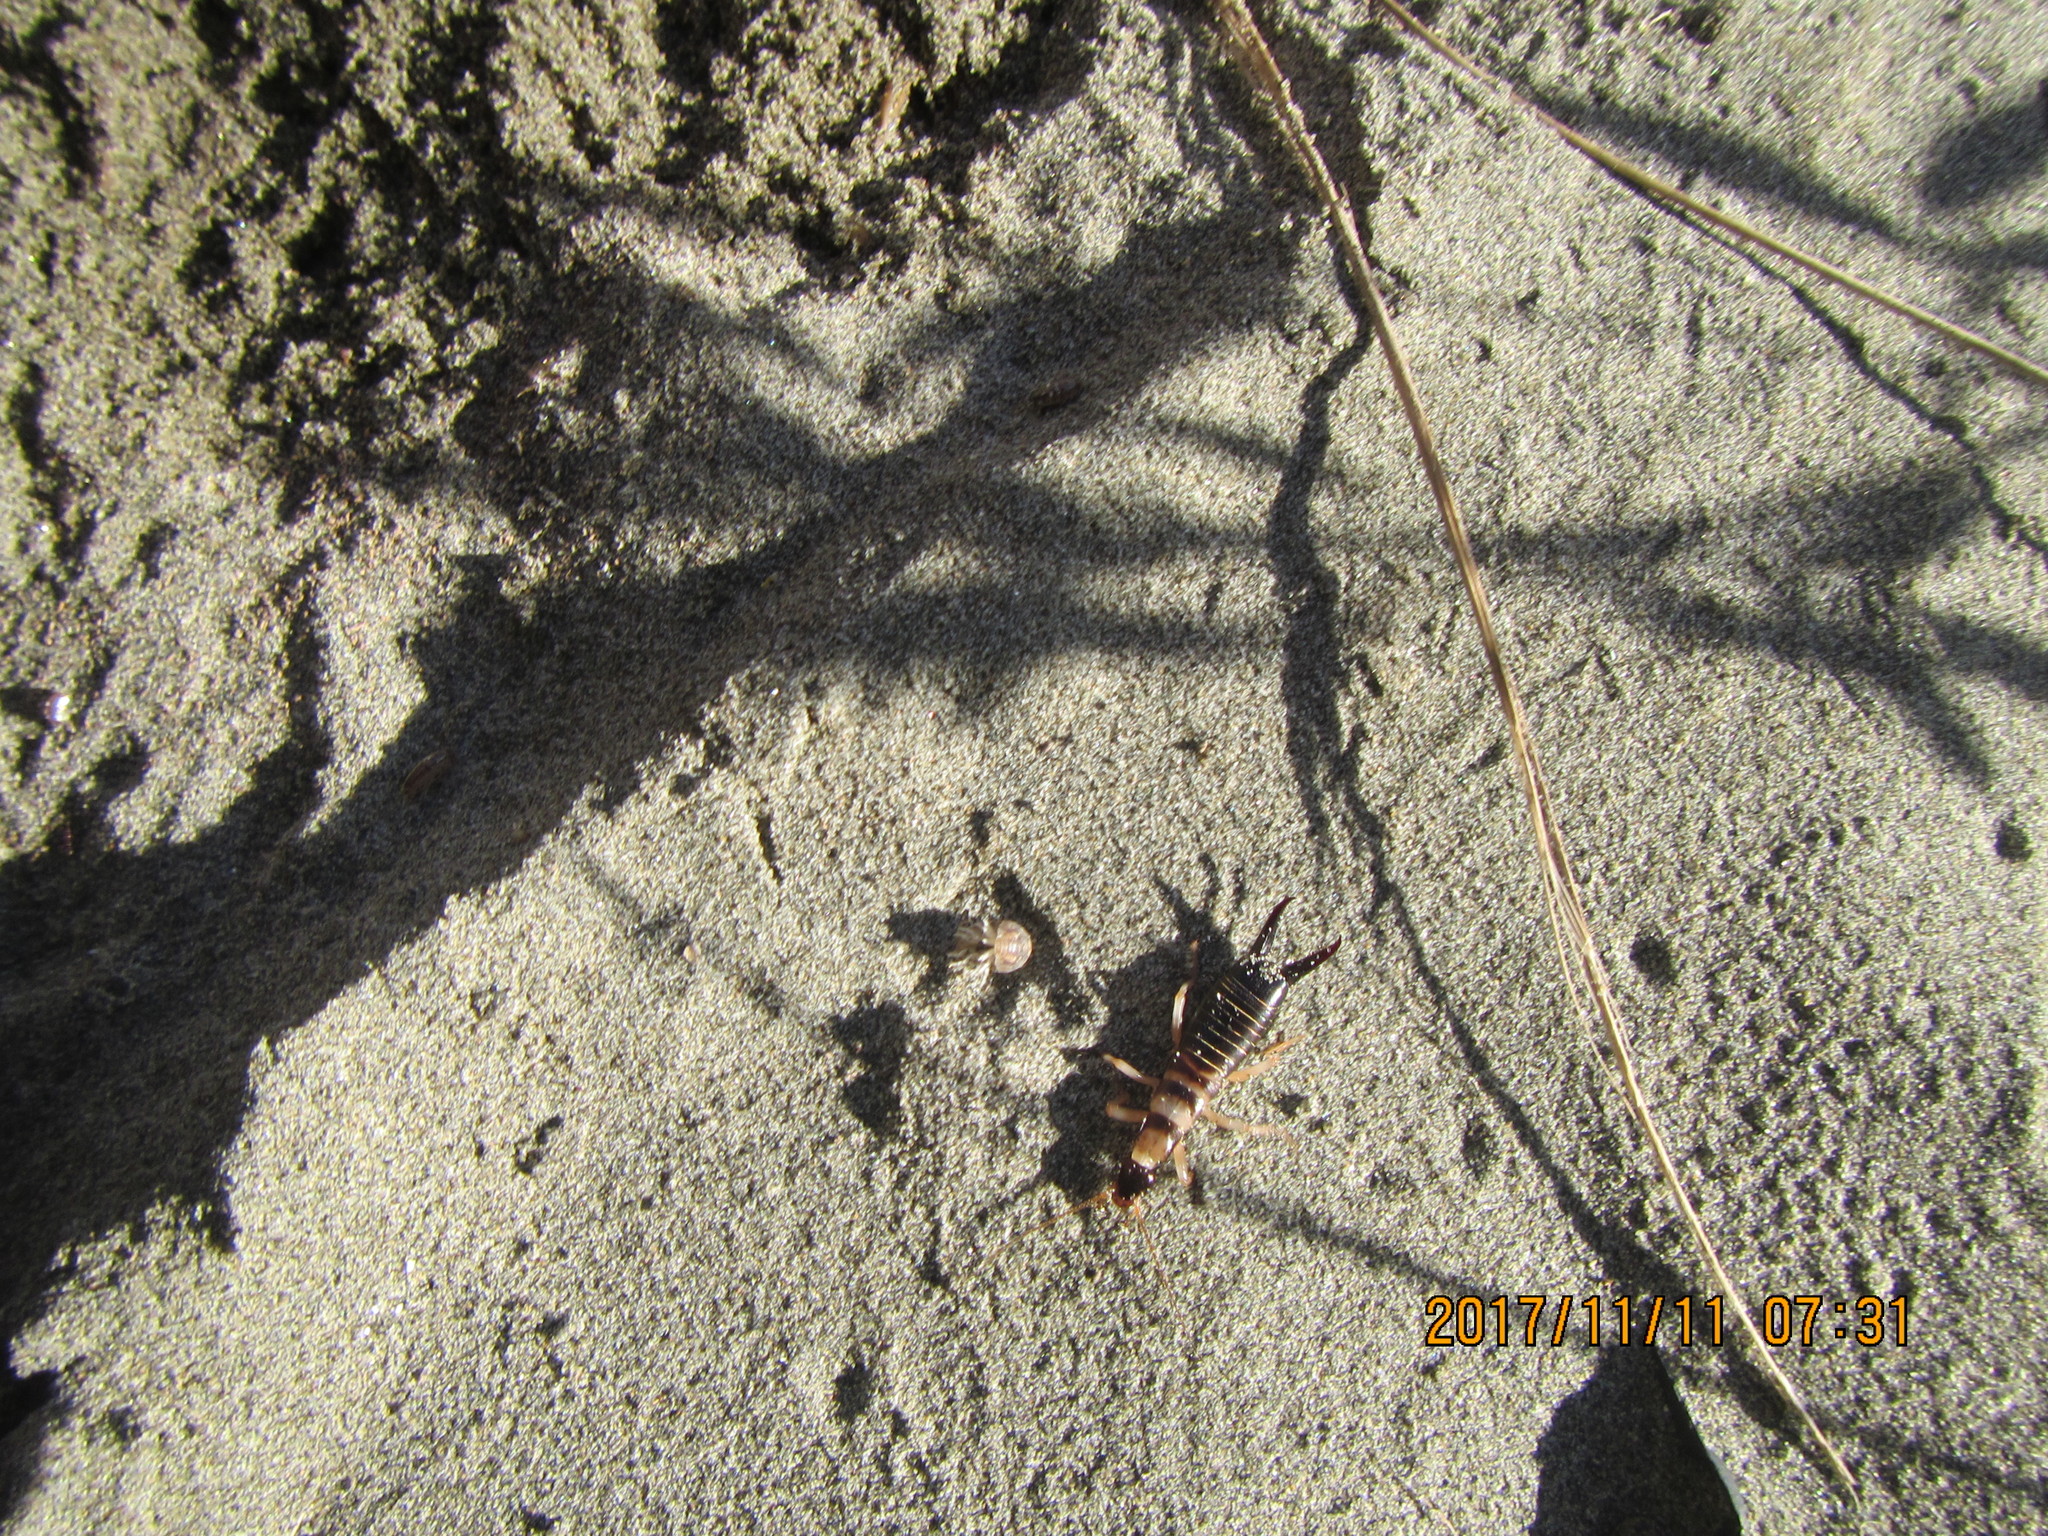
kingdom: Animalia
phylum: Arthropoda
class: Insecta
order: Dermaptera
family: Anisolabididae
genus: Anisolabis
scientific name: Anisolabis littorea
